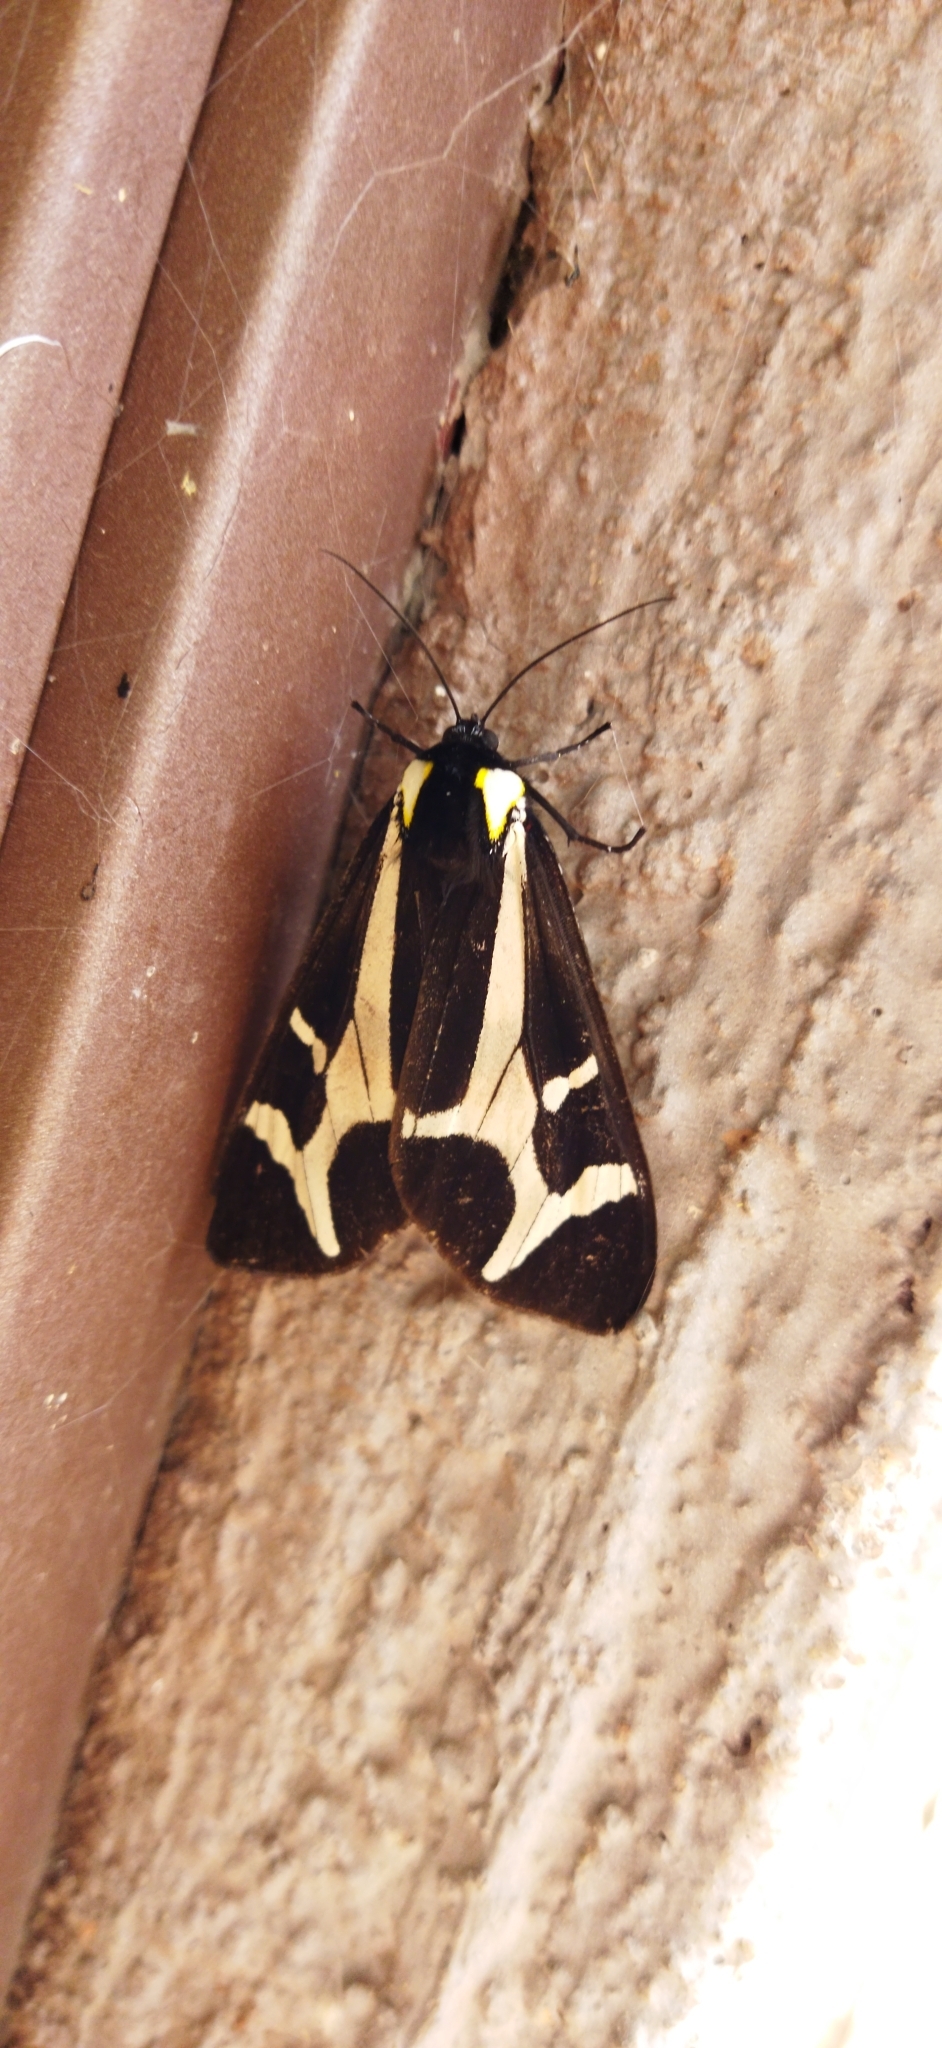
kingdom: Animalia
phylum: Arthropoda
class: Insecta
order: Lepidoptera
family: Erebidae
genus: Dysschema
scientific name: Dysschema howardi
